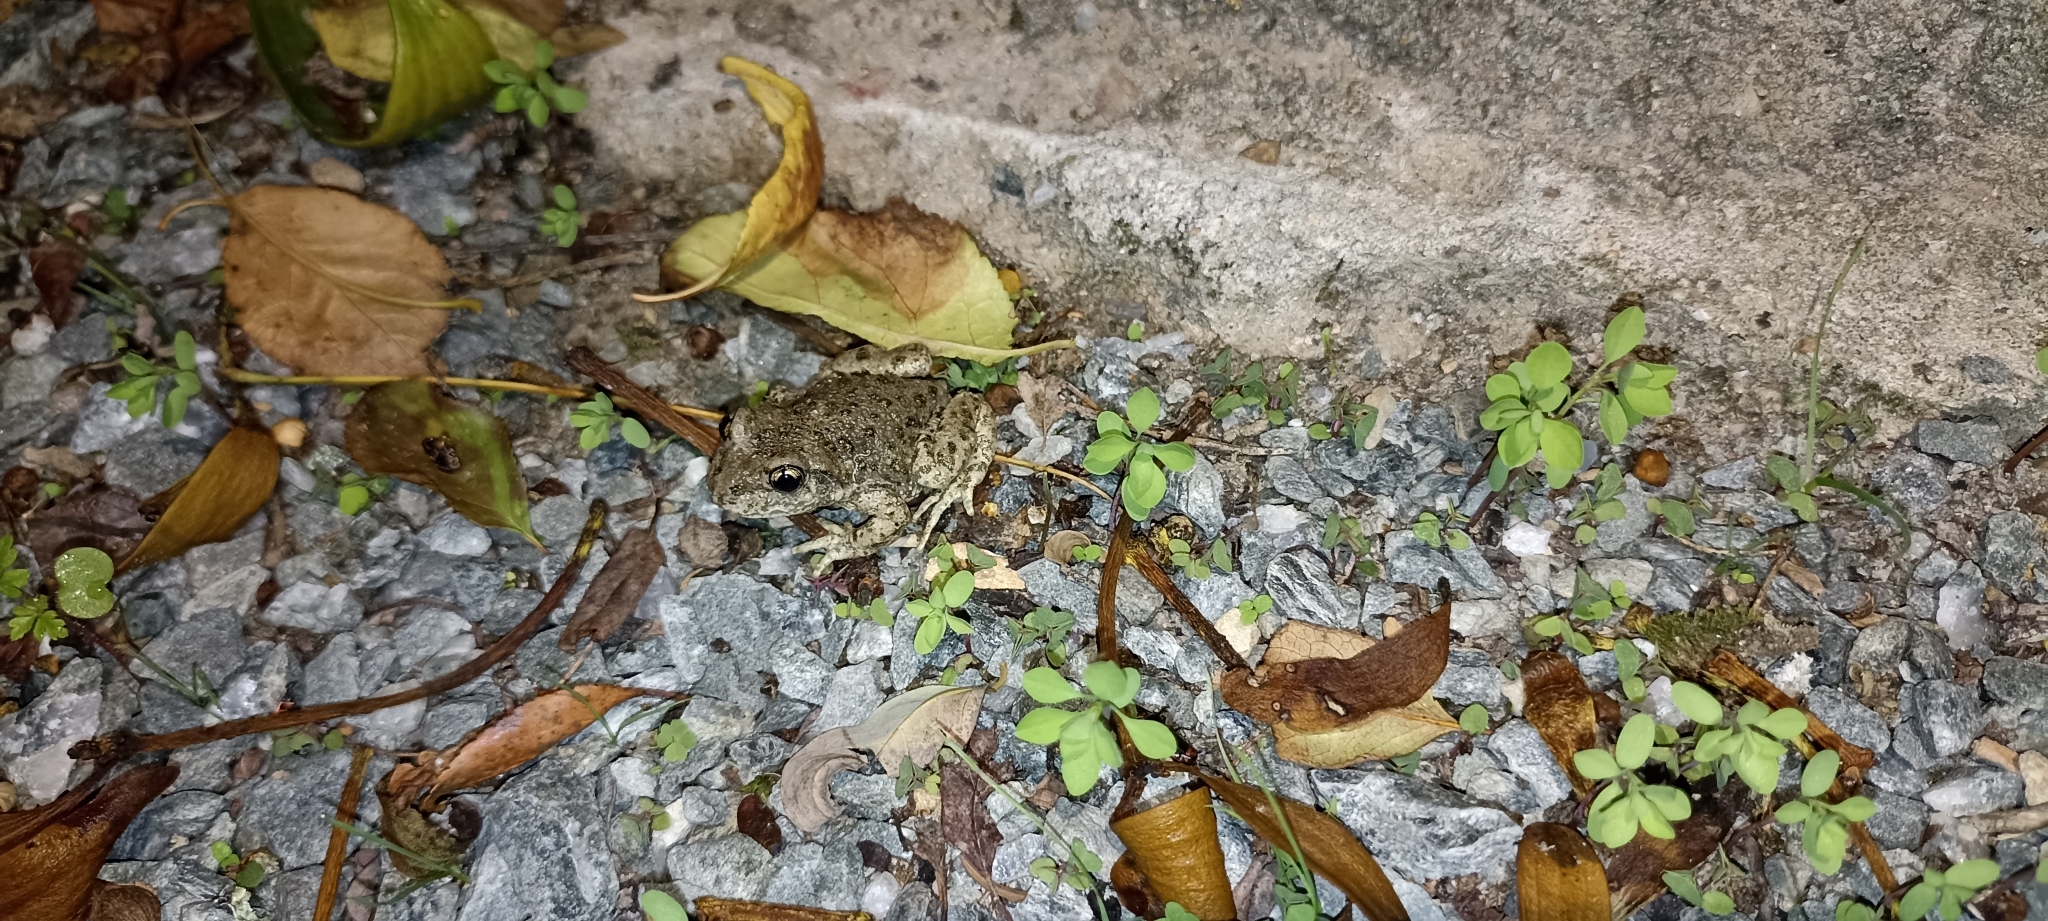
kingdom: Animalia
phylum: Chordata
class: Amphibia
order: Anura
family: Alytidae
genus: Alytes
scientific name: Alytes obstetricans
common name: Midwife toad
